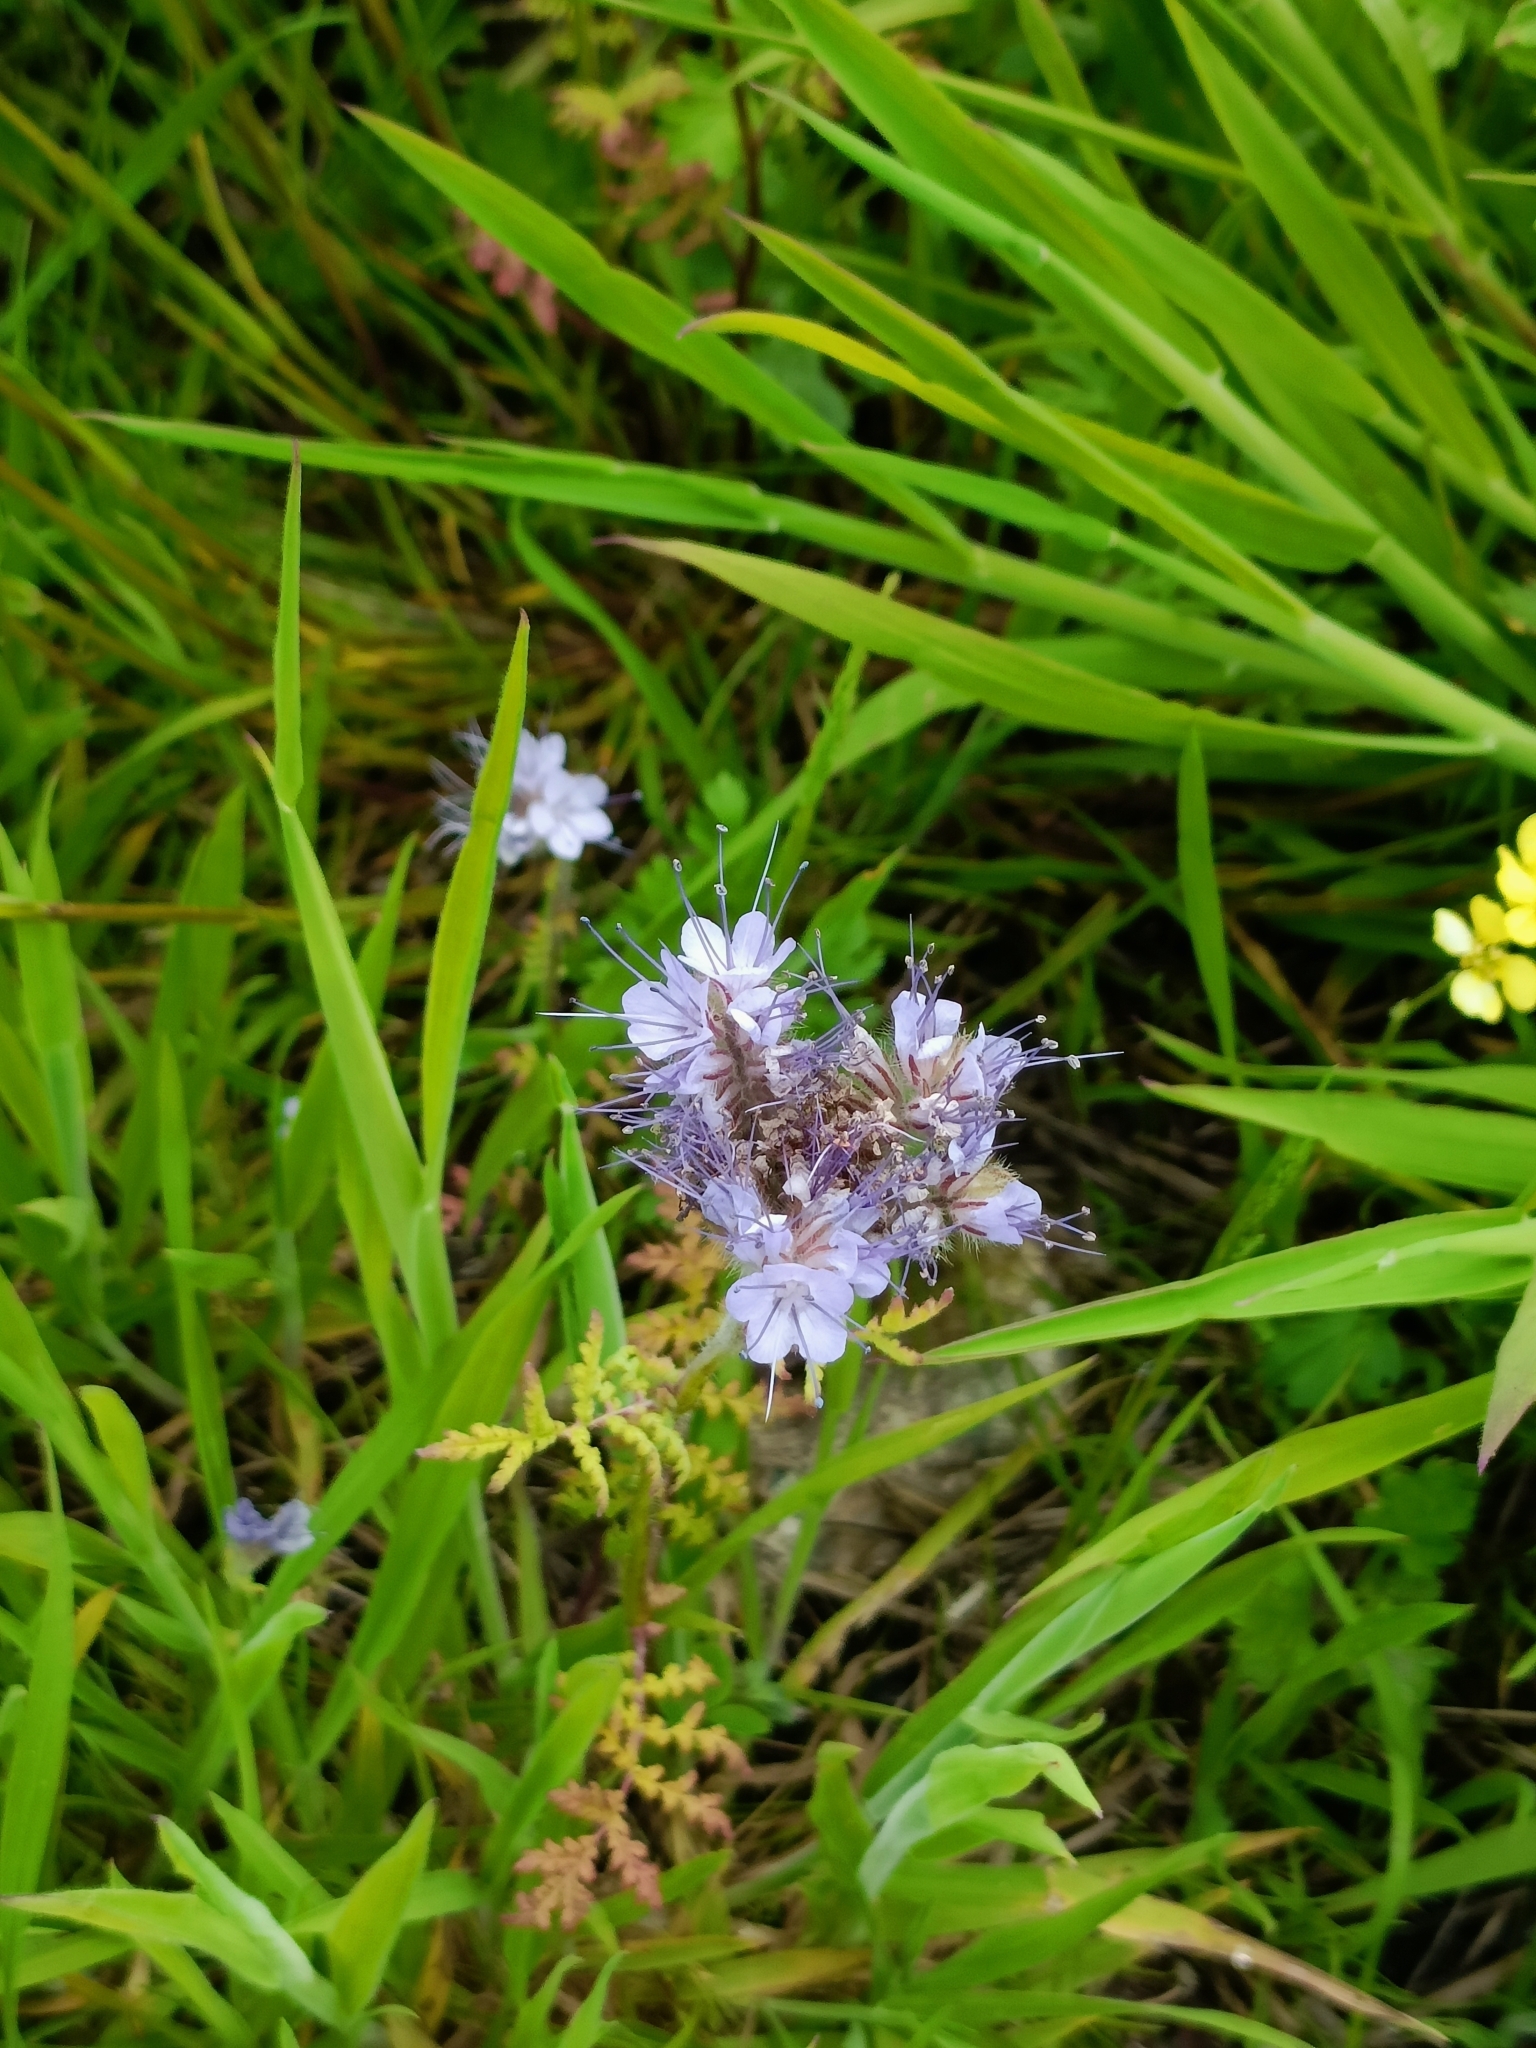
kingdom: Plantae
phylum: Tracheophyta
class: Magnoliopsida
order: Boraginales
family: Hydrophyllaceae
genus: Phacelia
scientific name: Phacelia tanacetifolia
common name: Phacelia
